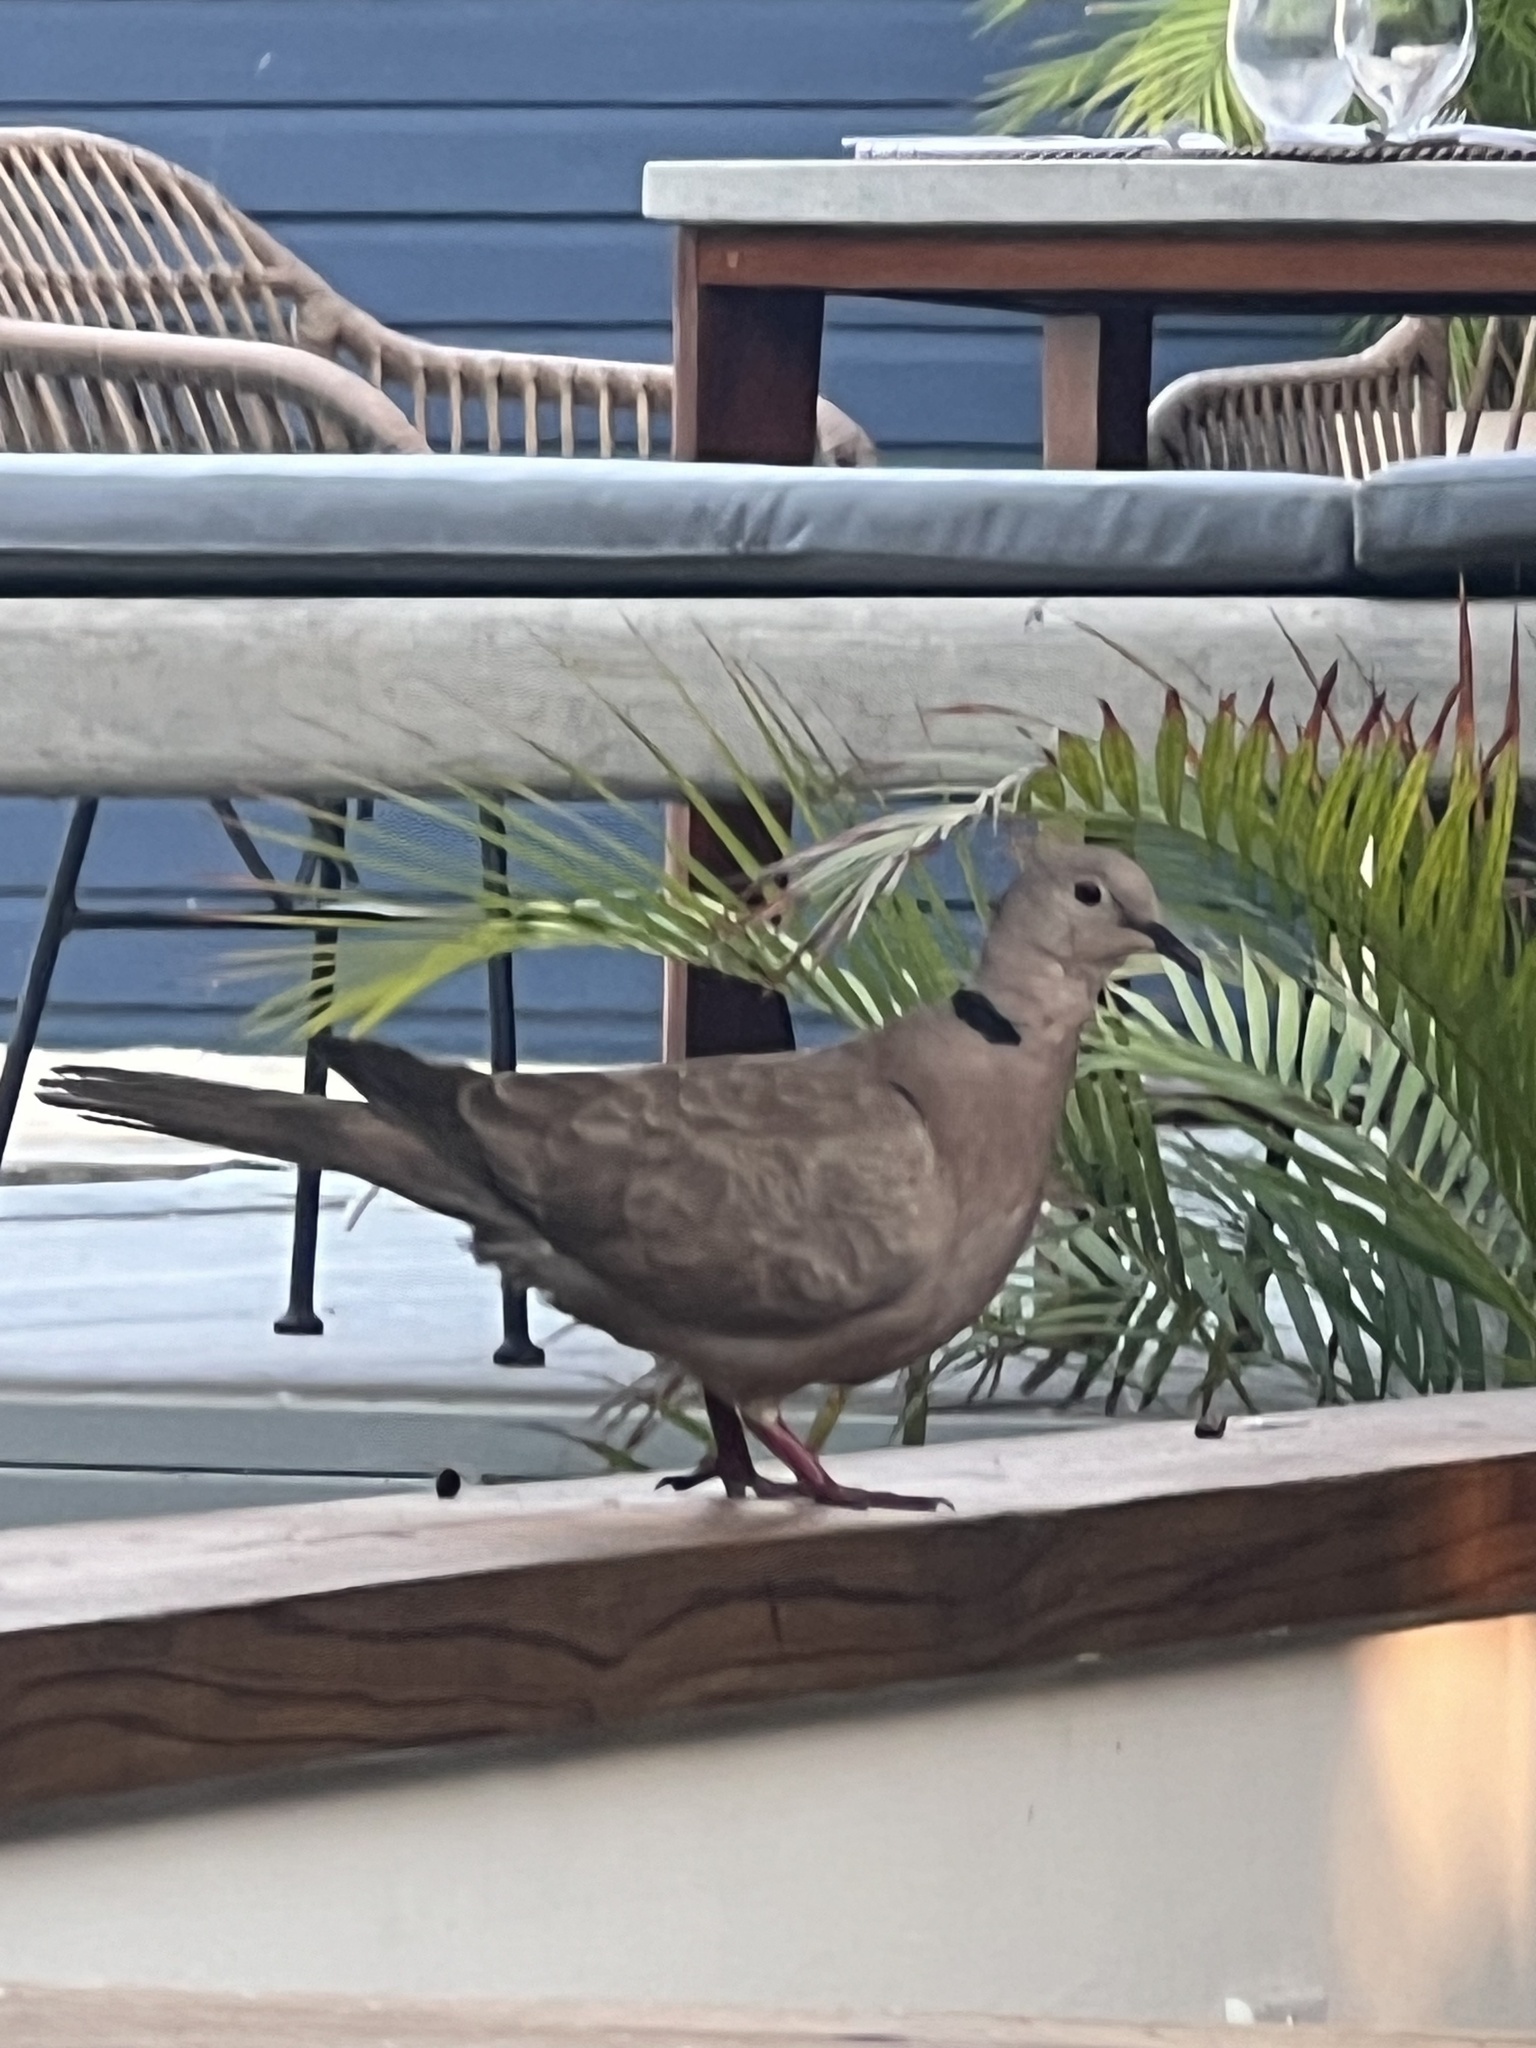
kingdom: Animalia
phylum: Chordata
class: Aves
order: Columbiformes
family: Columbidae
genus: Streptopelia
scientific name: Streptopelia decaocto
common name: Eurasian collared dove
